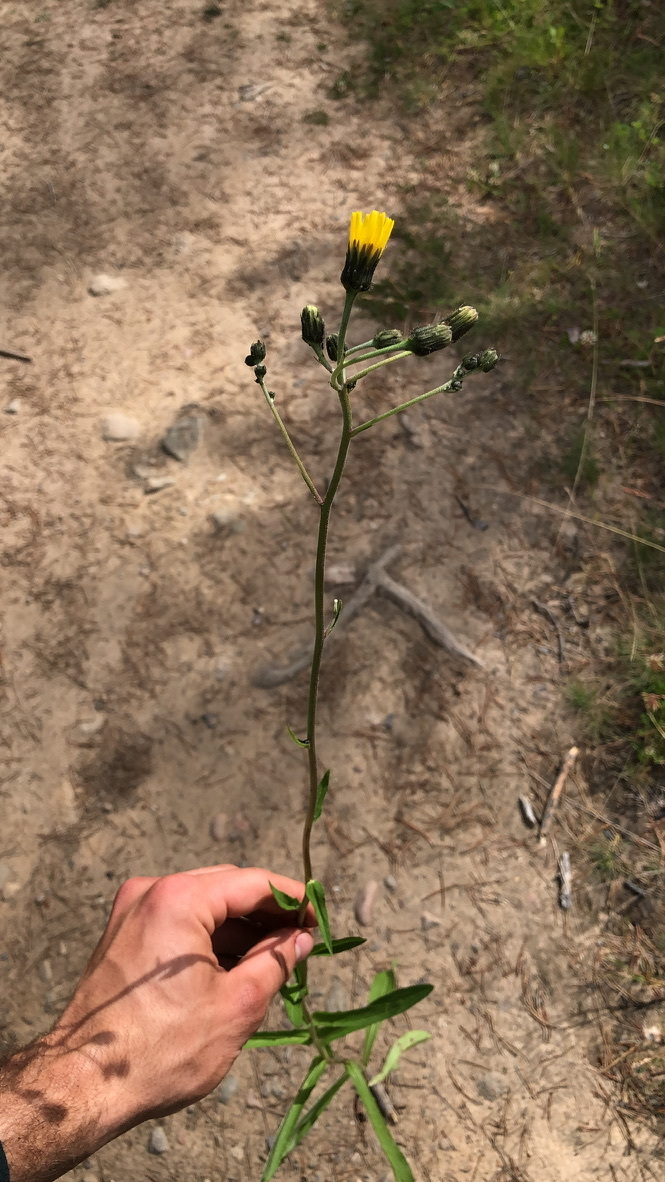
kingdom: Plantae
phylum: Tracheophyta
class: Magnoliopsida
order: Asterales
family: Asteraceae
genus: Hieracium
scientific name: Hieracium umbellatum
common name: Northern hawkweed
